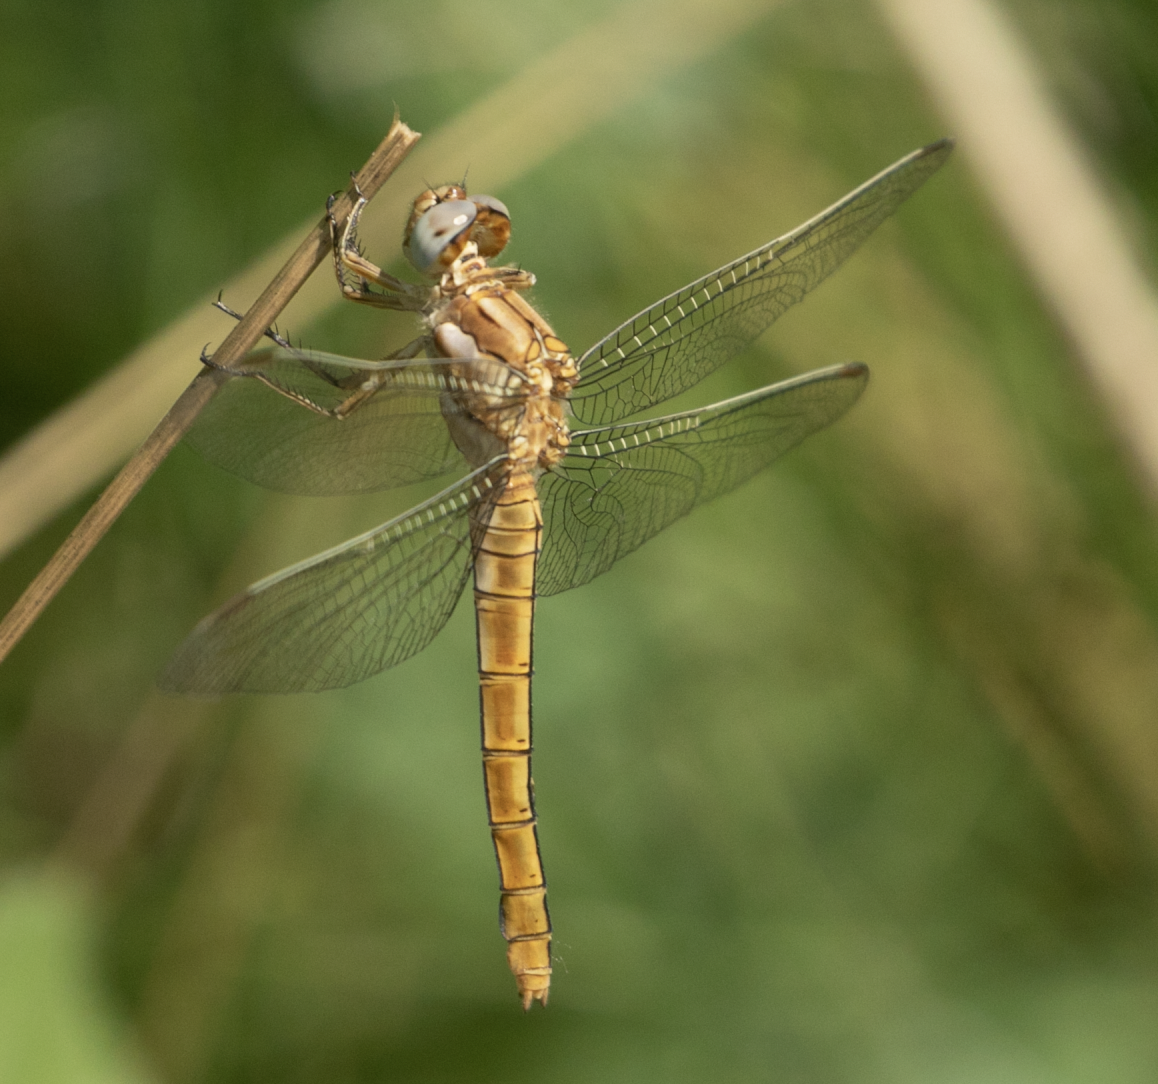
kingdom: Animalia
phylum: Arthropoda
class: Insecta
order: Odonata
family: Libellulidae
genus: Orthetrum
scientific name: Orthetrum brunneum
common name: Southern skimmer
